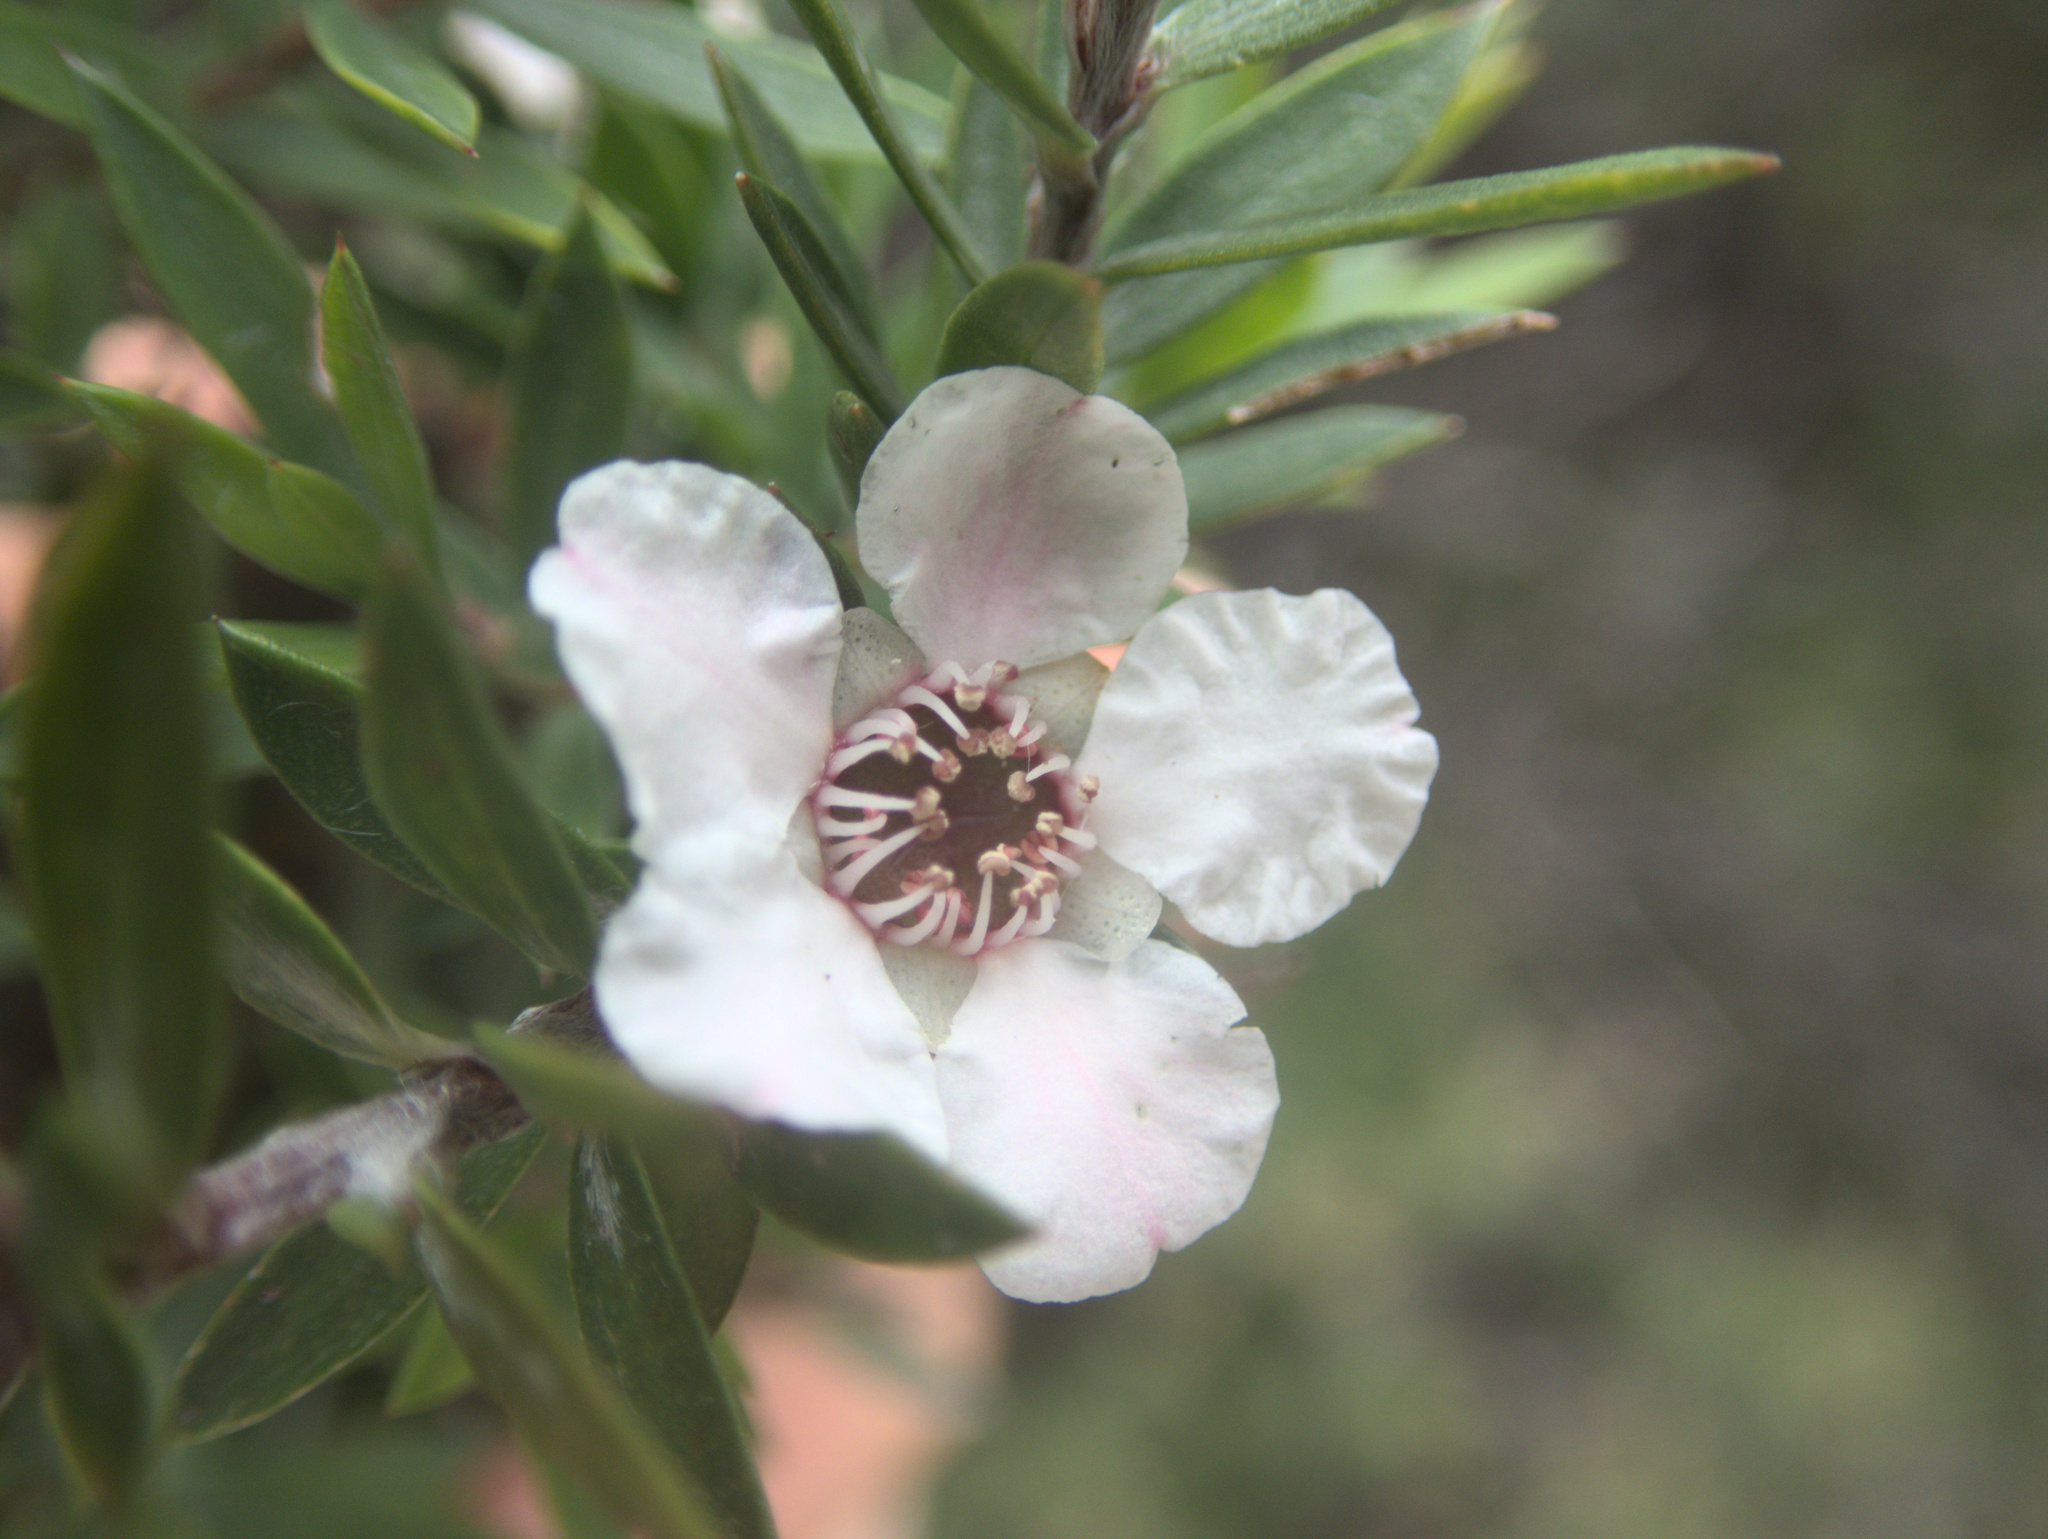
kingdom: Plantae
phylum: Tracheophyta
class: Magnoliopsida
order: Myrtales
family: Myrtaceae
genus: Leptospermum
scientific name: Leptospermum scoparium
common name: Broom tea-tree
